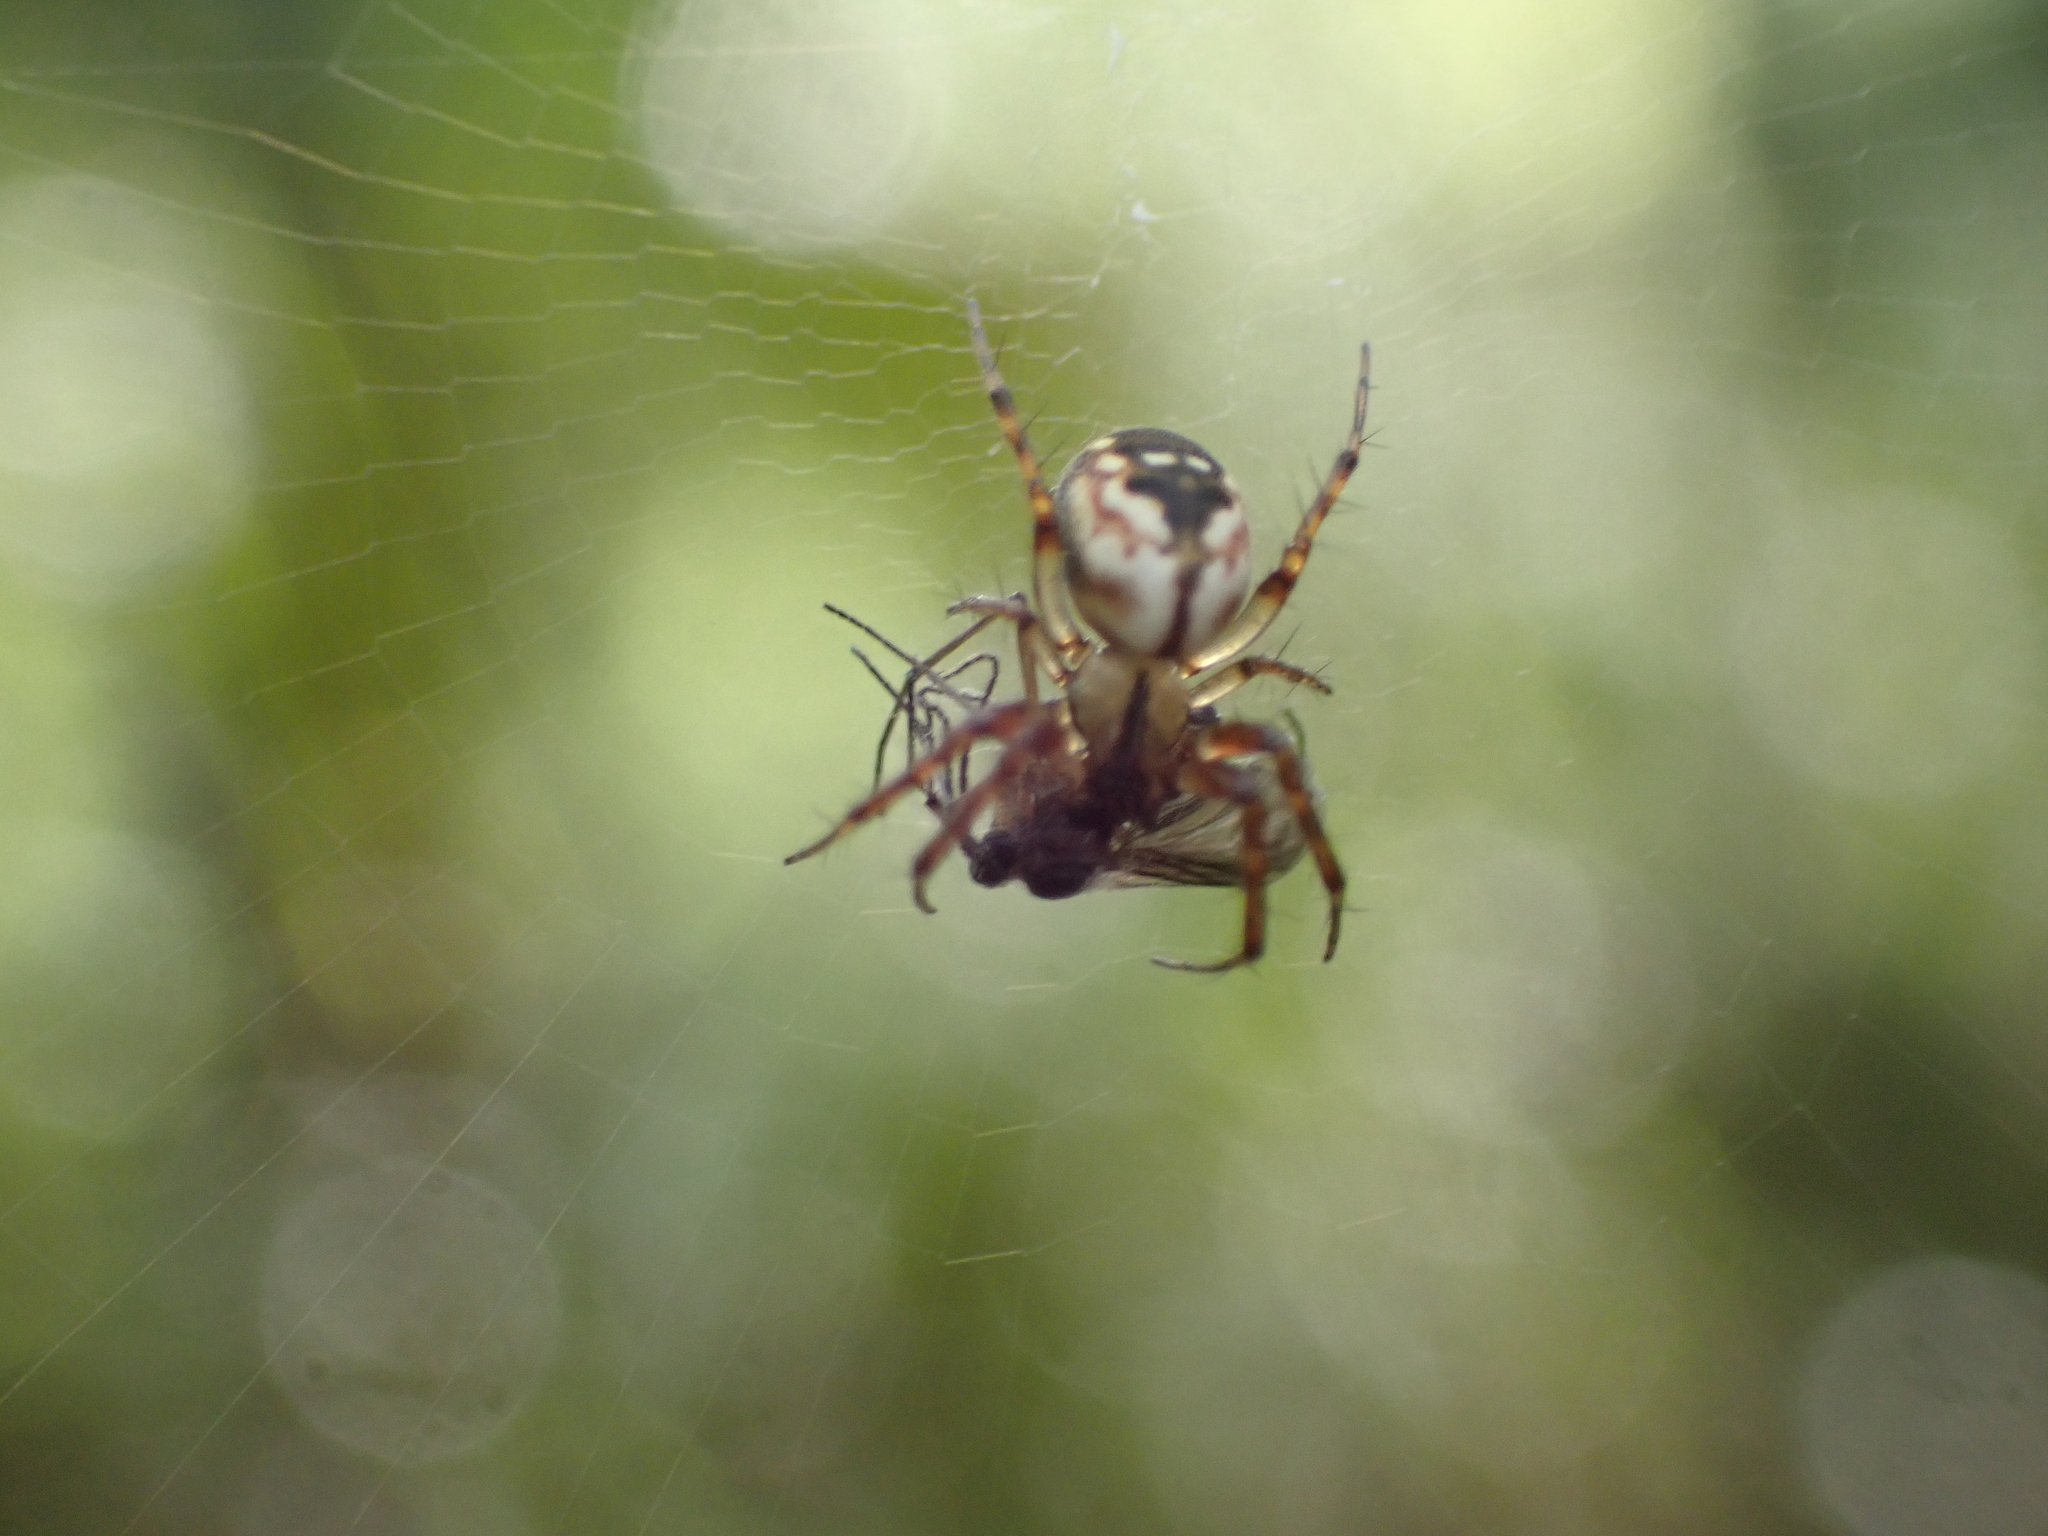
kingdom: Animalia
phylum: Arthropoda
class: Arachnida
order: Araneae
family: Araneidae
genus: Mangora
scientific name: Mangora placida
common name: Tuft-legged orbweaver
